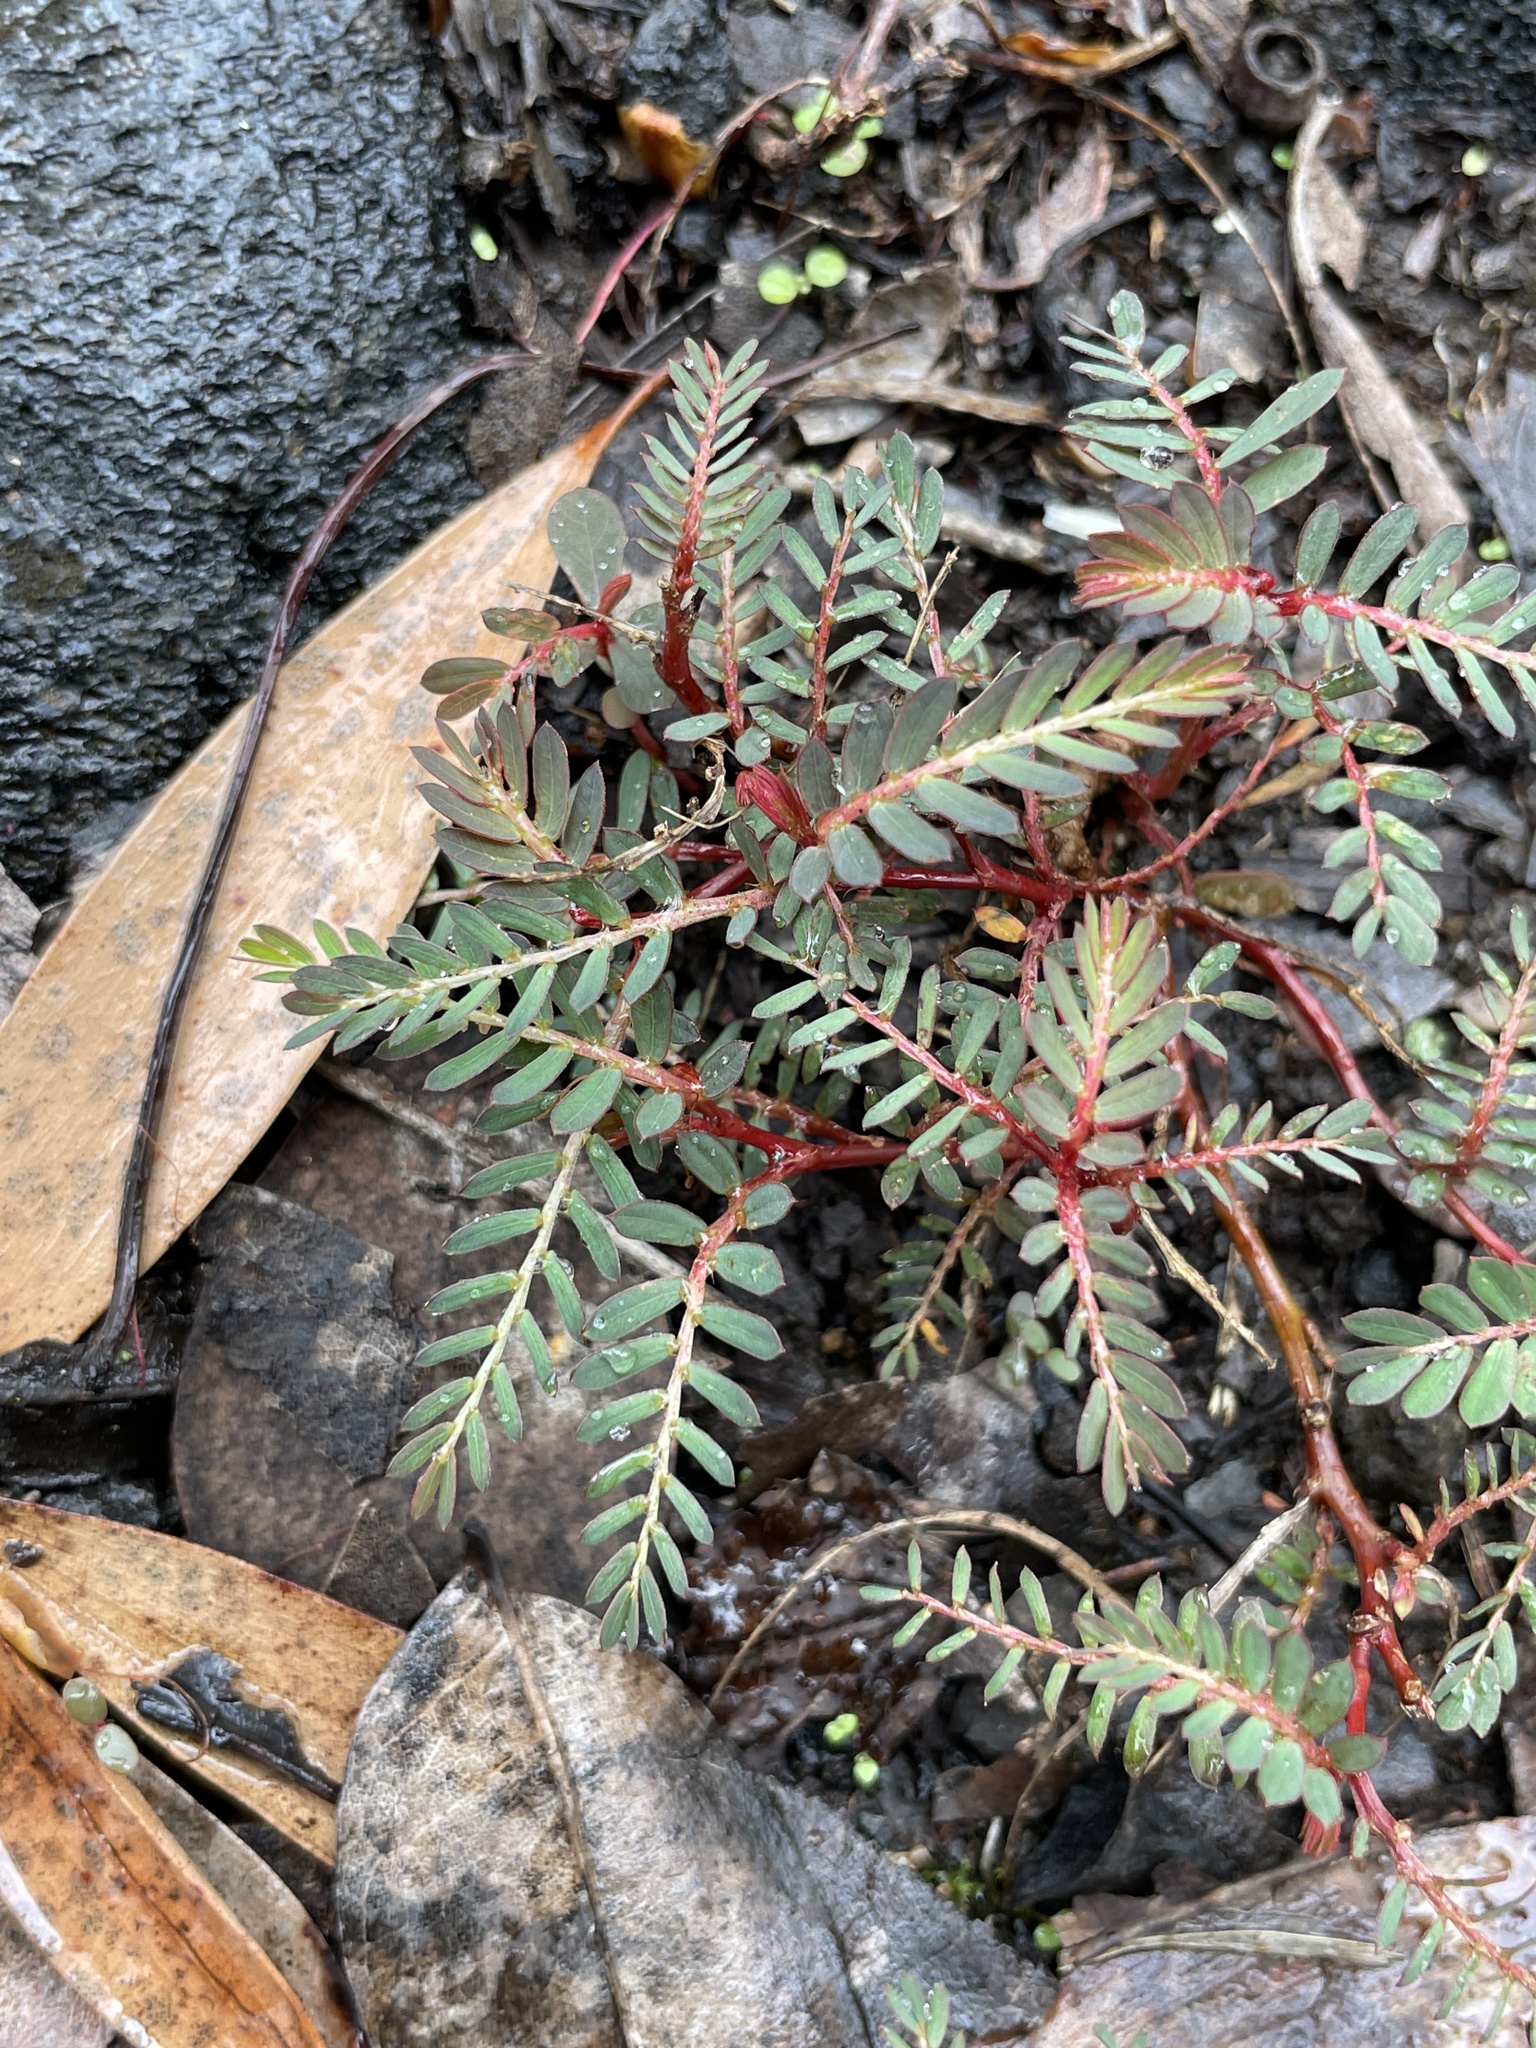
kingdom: Plantae
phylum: Tracheophyta
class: Magnoliopsida
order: Malpighiales
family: Phyllanthaceae
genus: Phyllanthus
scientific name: Phyllanthus urinaria
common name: Chamber bitter
